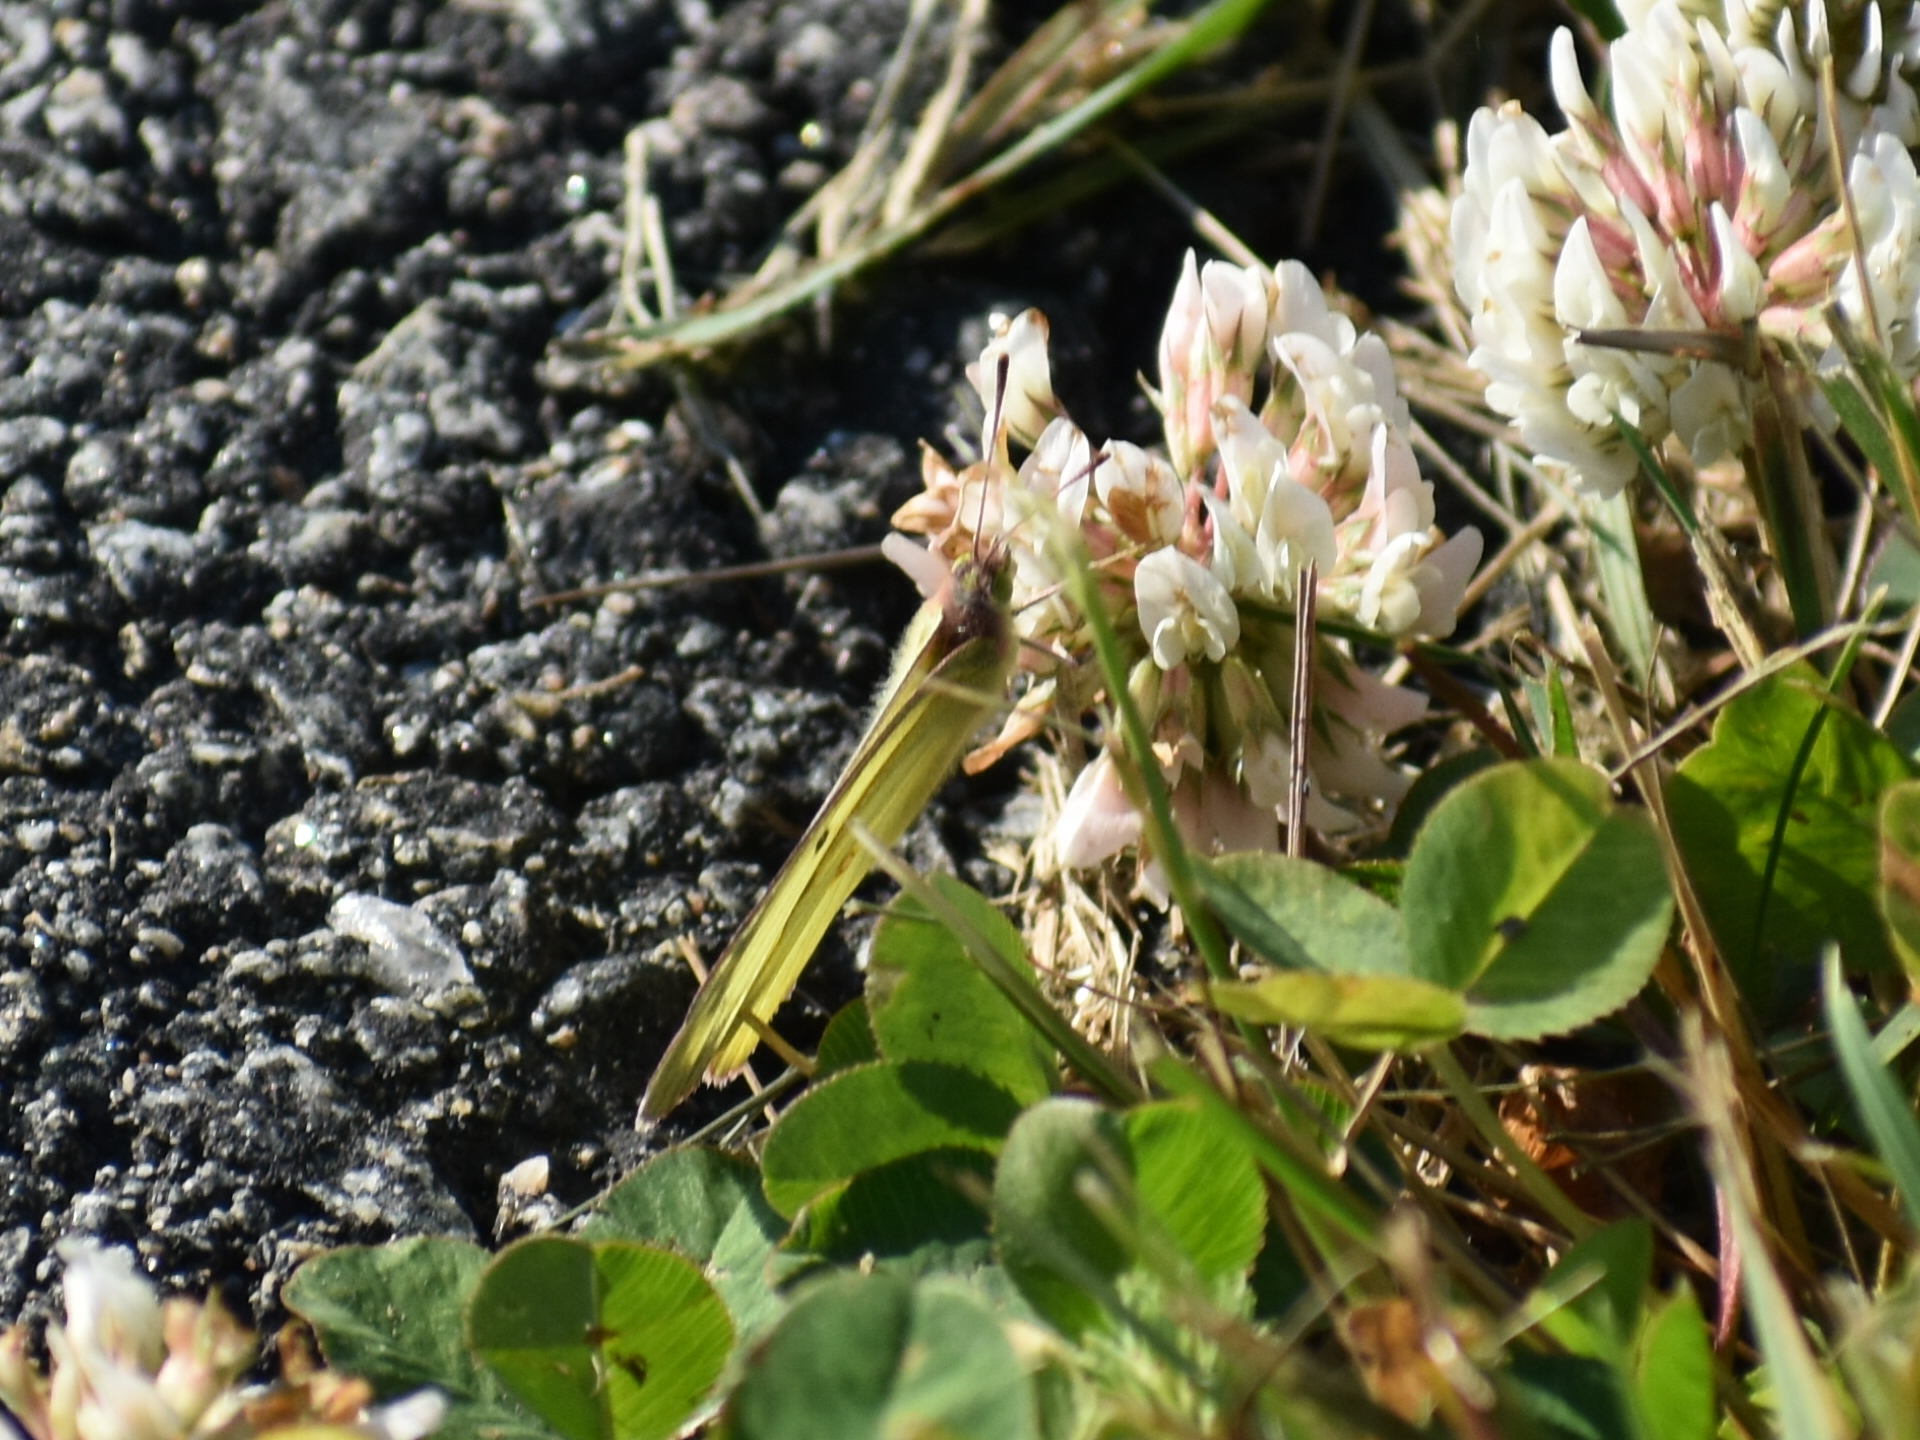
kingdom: Animalia
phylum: Arthropoda
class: Insecta
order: Lepidoptera
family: Pieridae
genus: Colias
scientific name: Colias philodice
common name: Clouded sulphur
